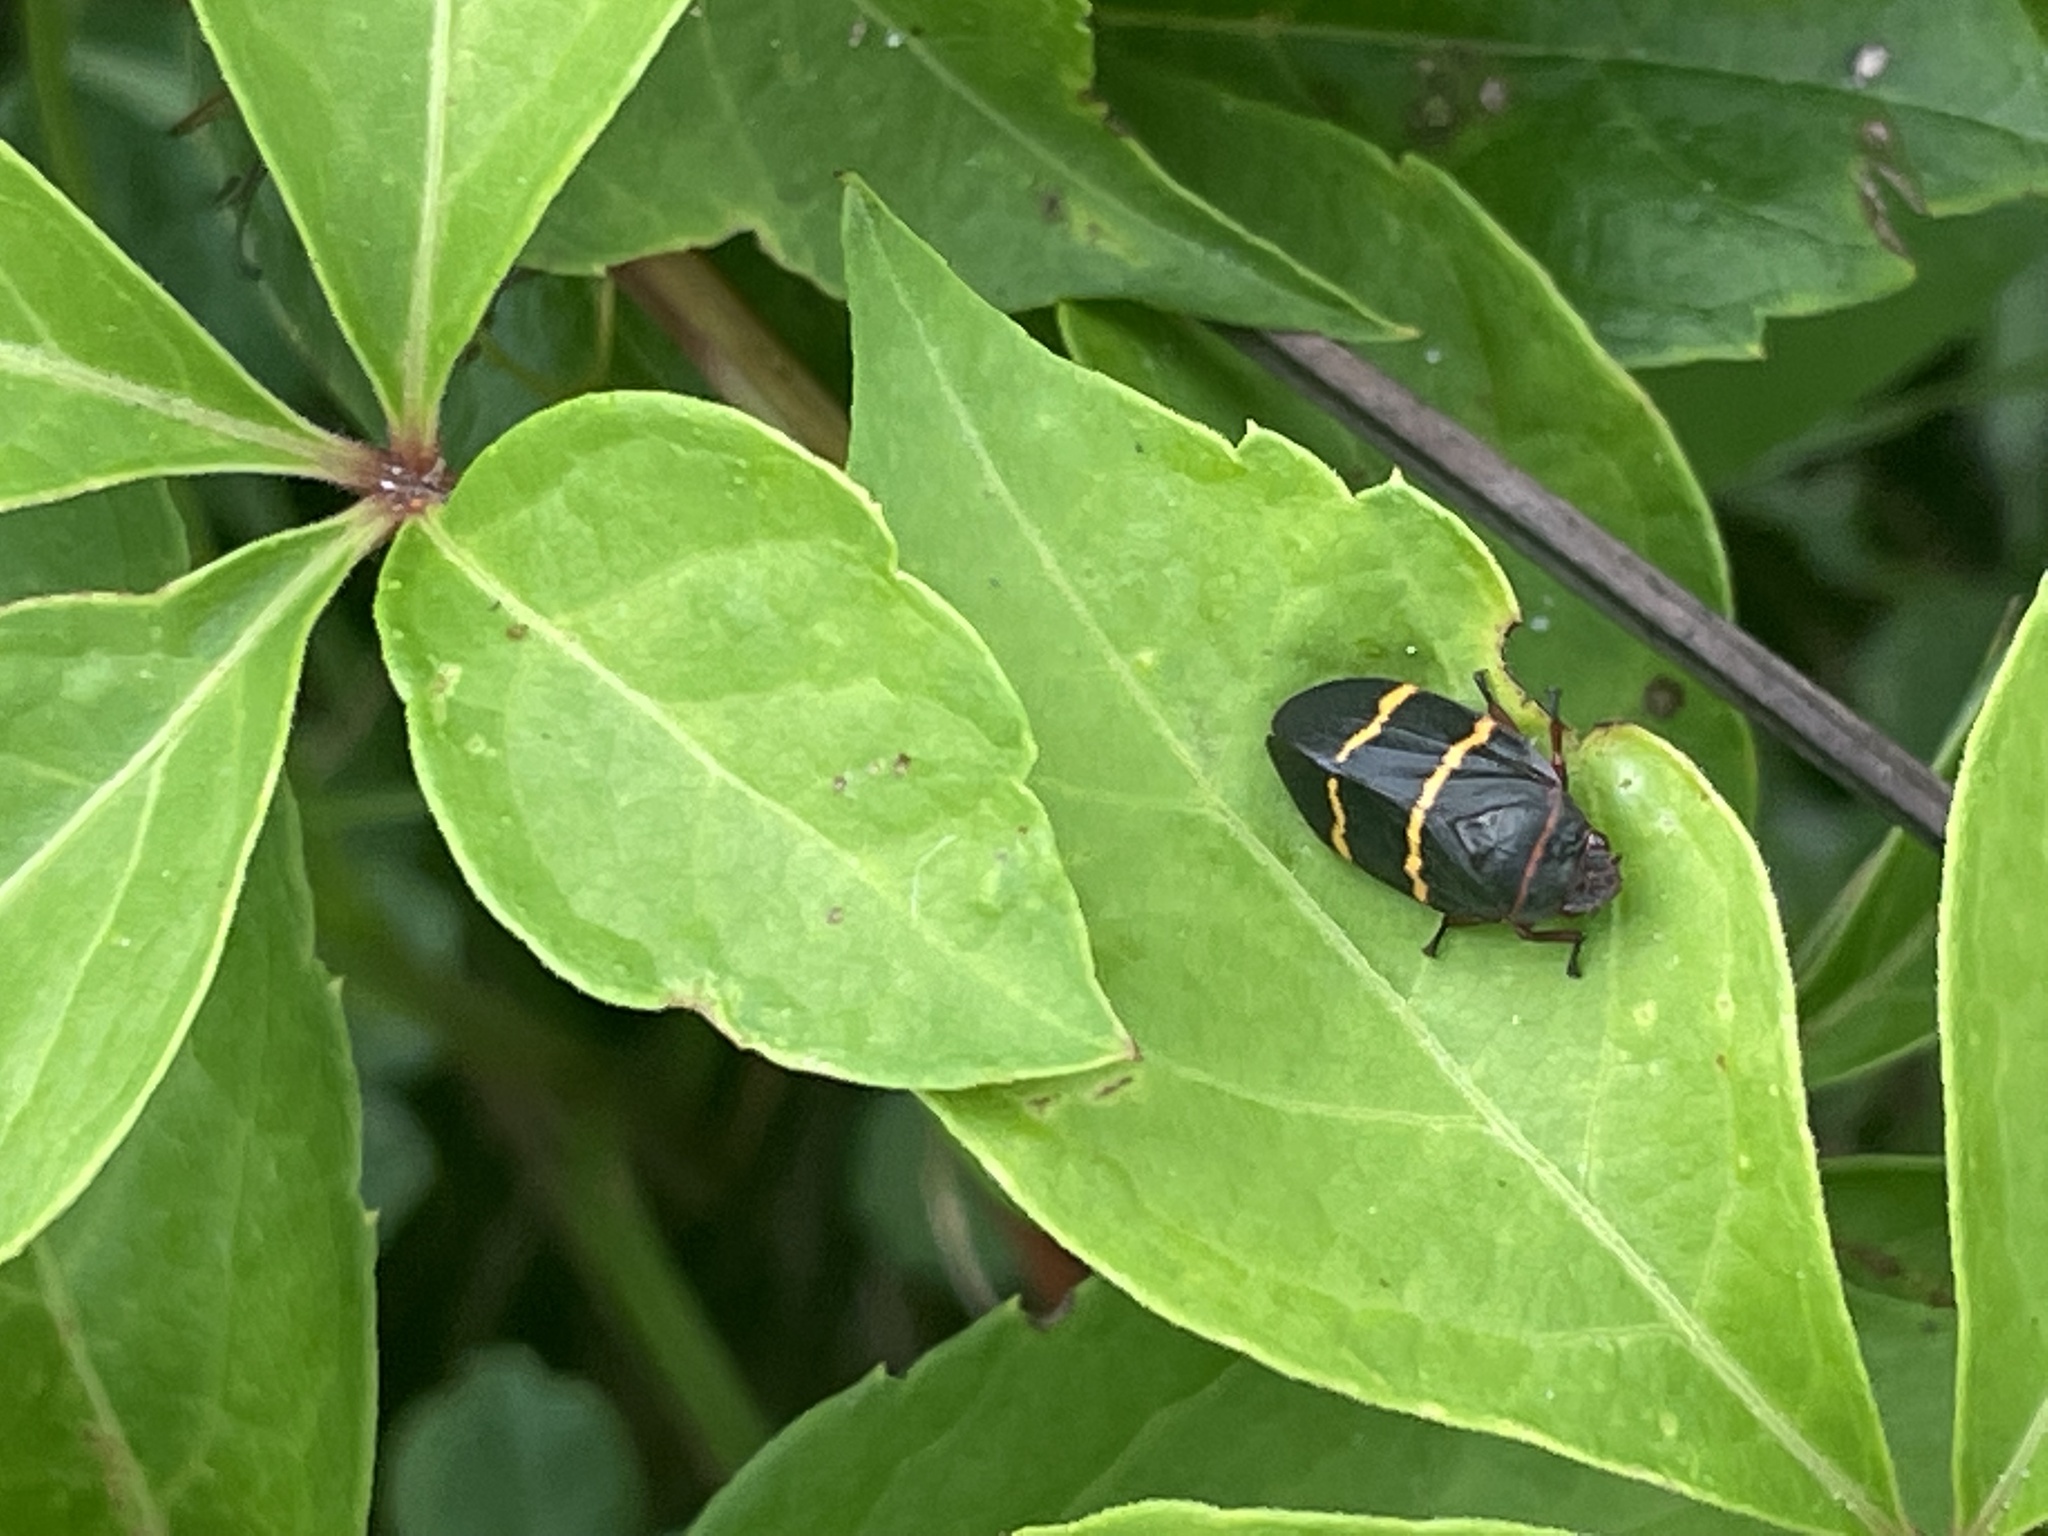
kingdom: Animalia
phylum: Arthropoda
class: Insecta
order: Hemiptera
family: Cercopidae
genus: Prosapia
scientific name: Prosapia bicincta
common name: Twolined spittlebug
